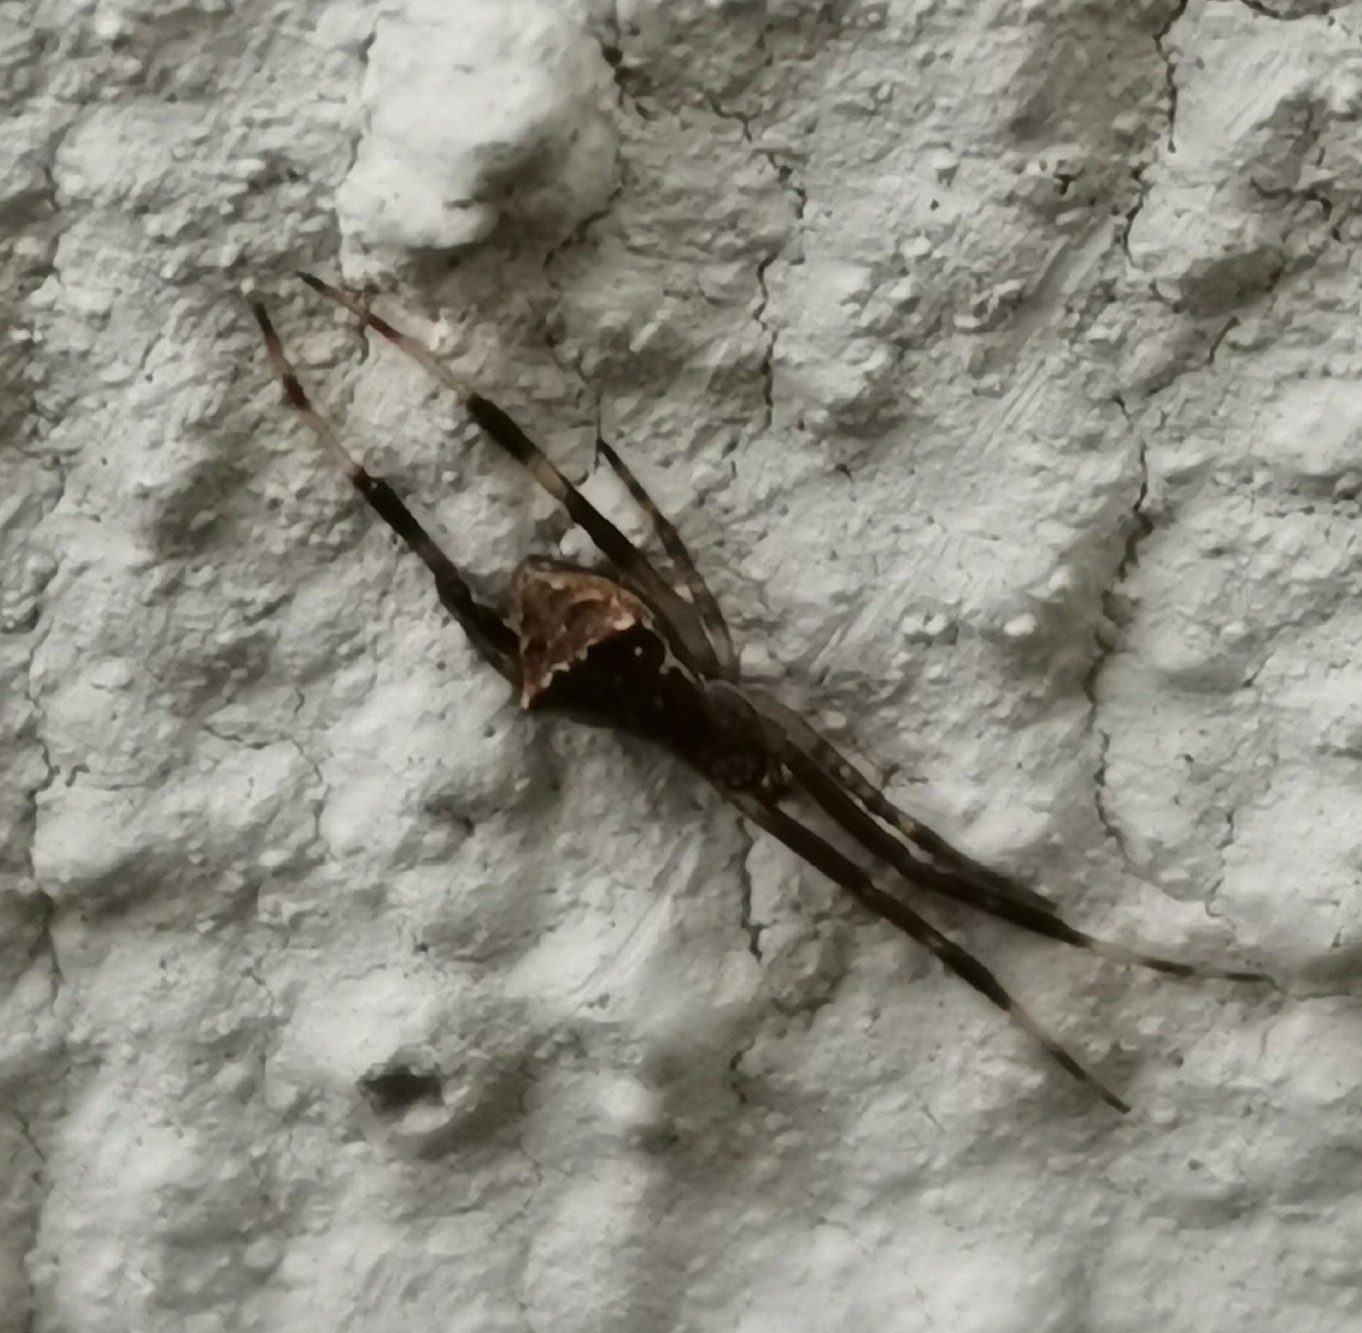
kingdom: Animalia
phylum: Arthropoda
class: Arachnida
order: Araneae
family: Theridiidae
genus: Episinus
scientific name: Episinus angulatus
